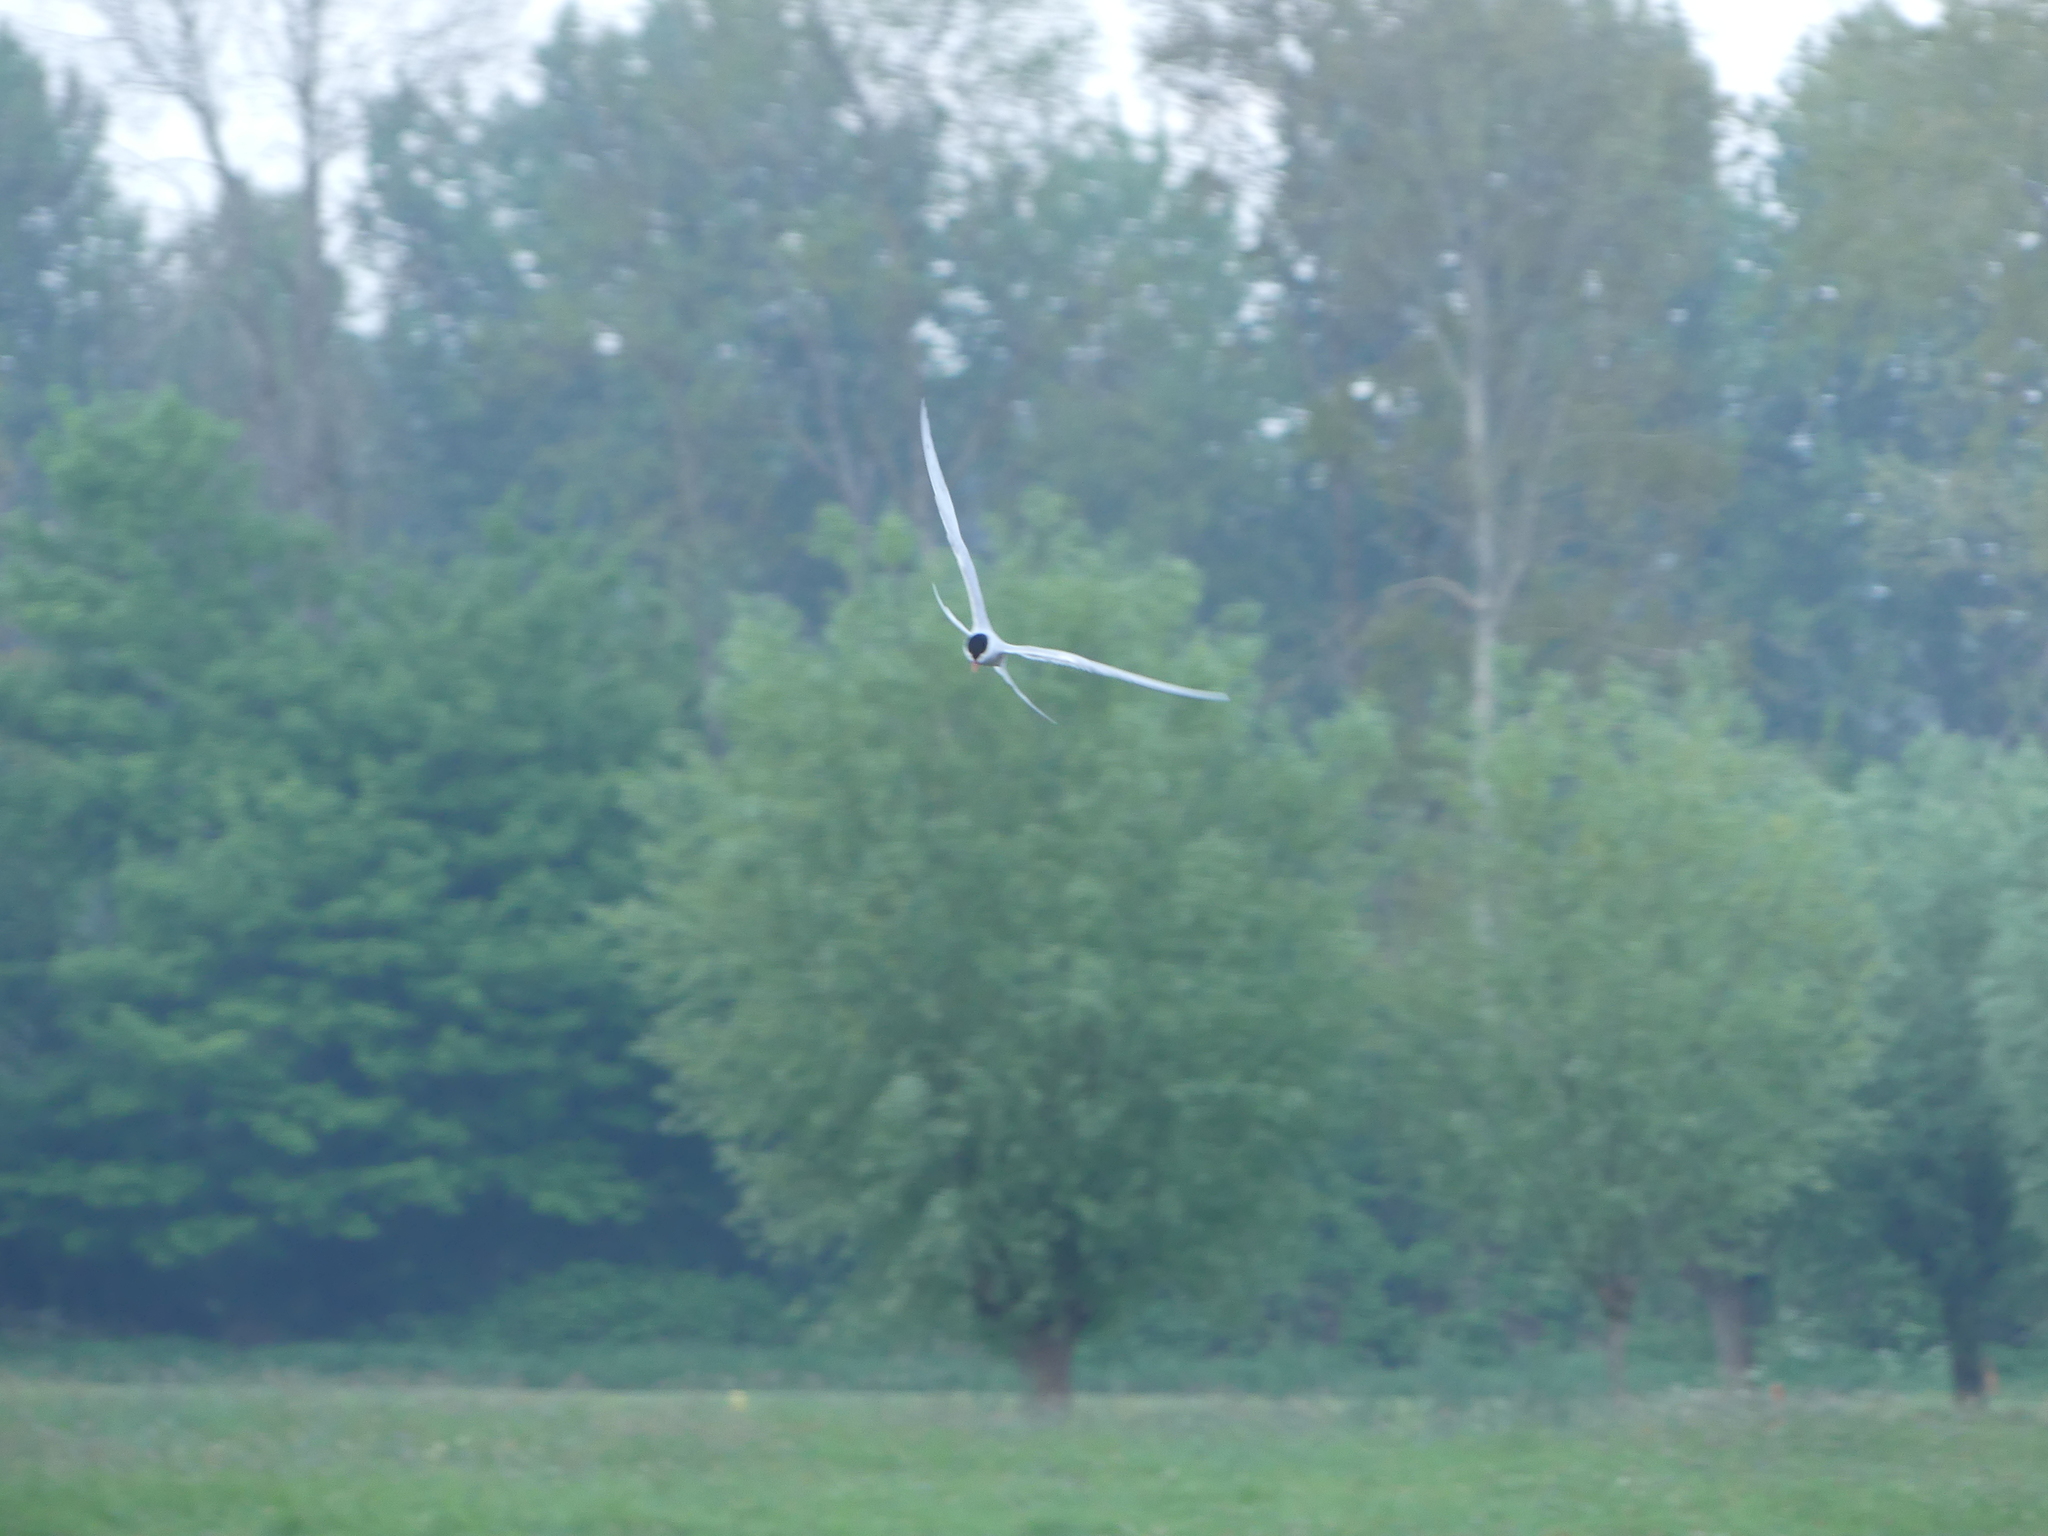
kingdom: Animalia
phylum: Chordata
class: Aves
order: Charadriiformes
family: Laridae
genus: Sterna
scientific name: Sterna hirundo
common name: Common tern
